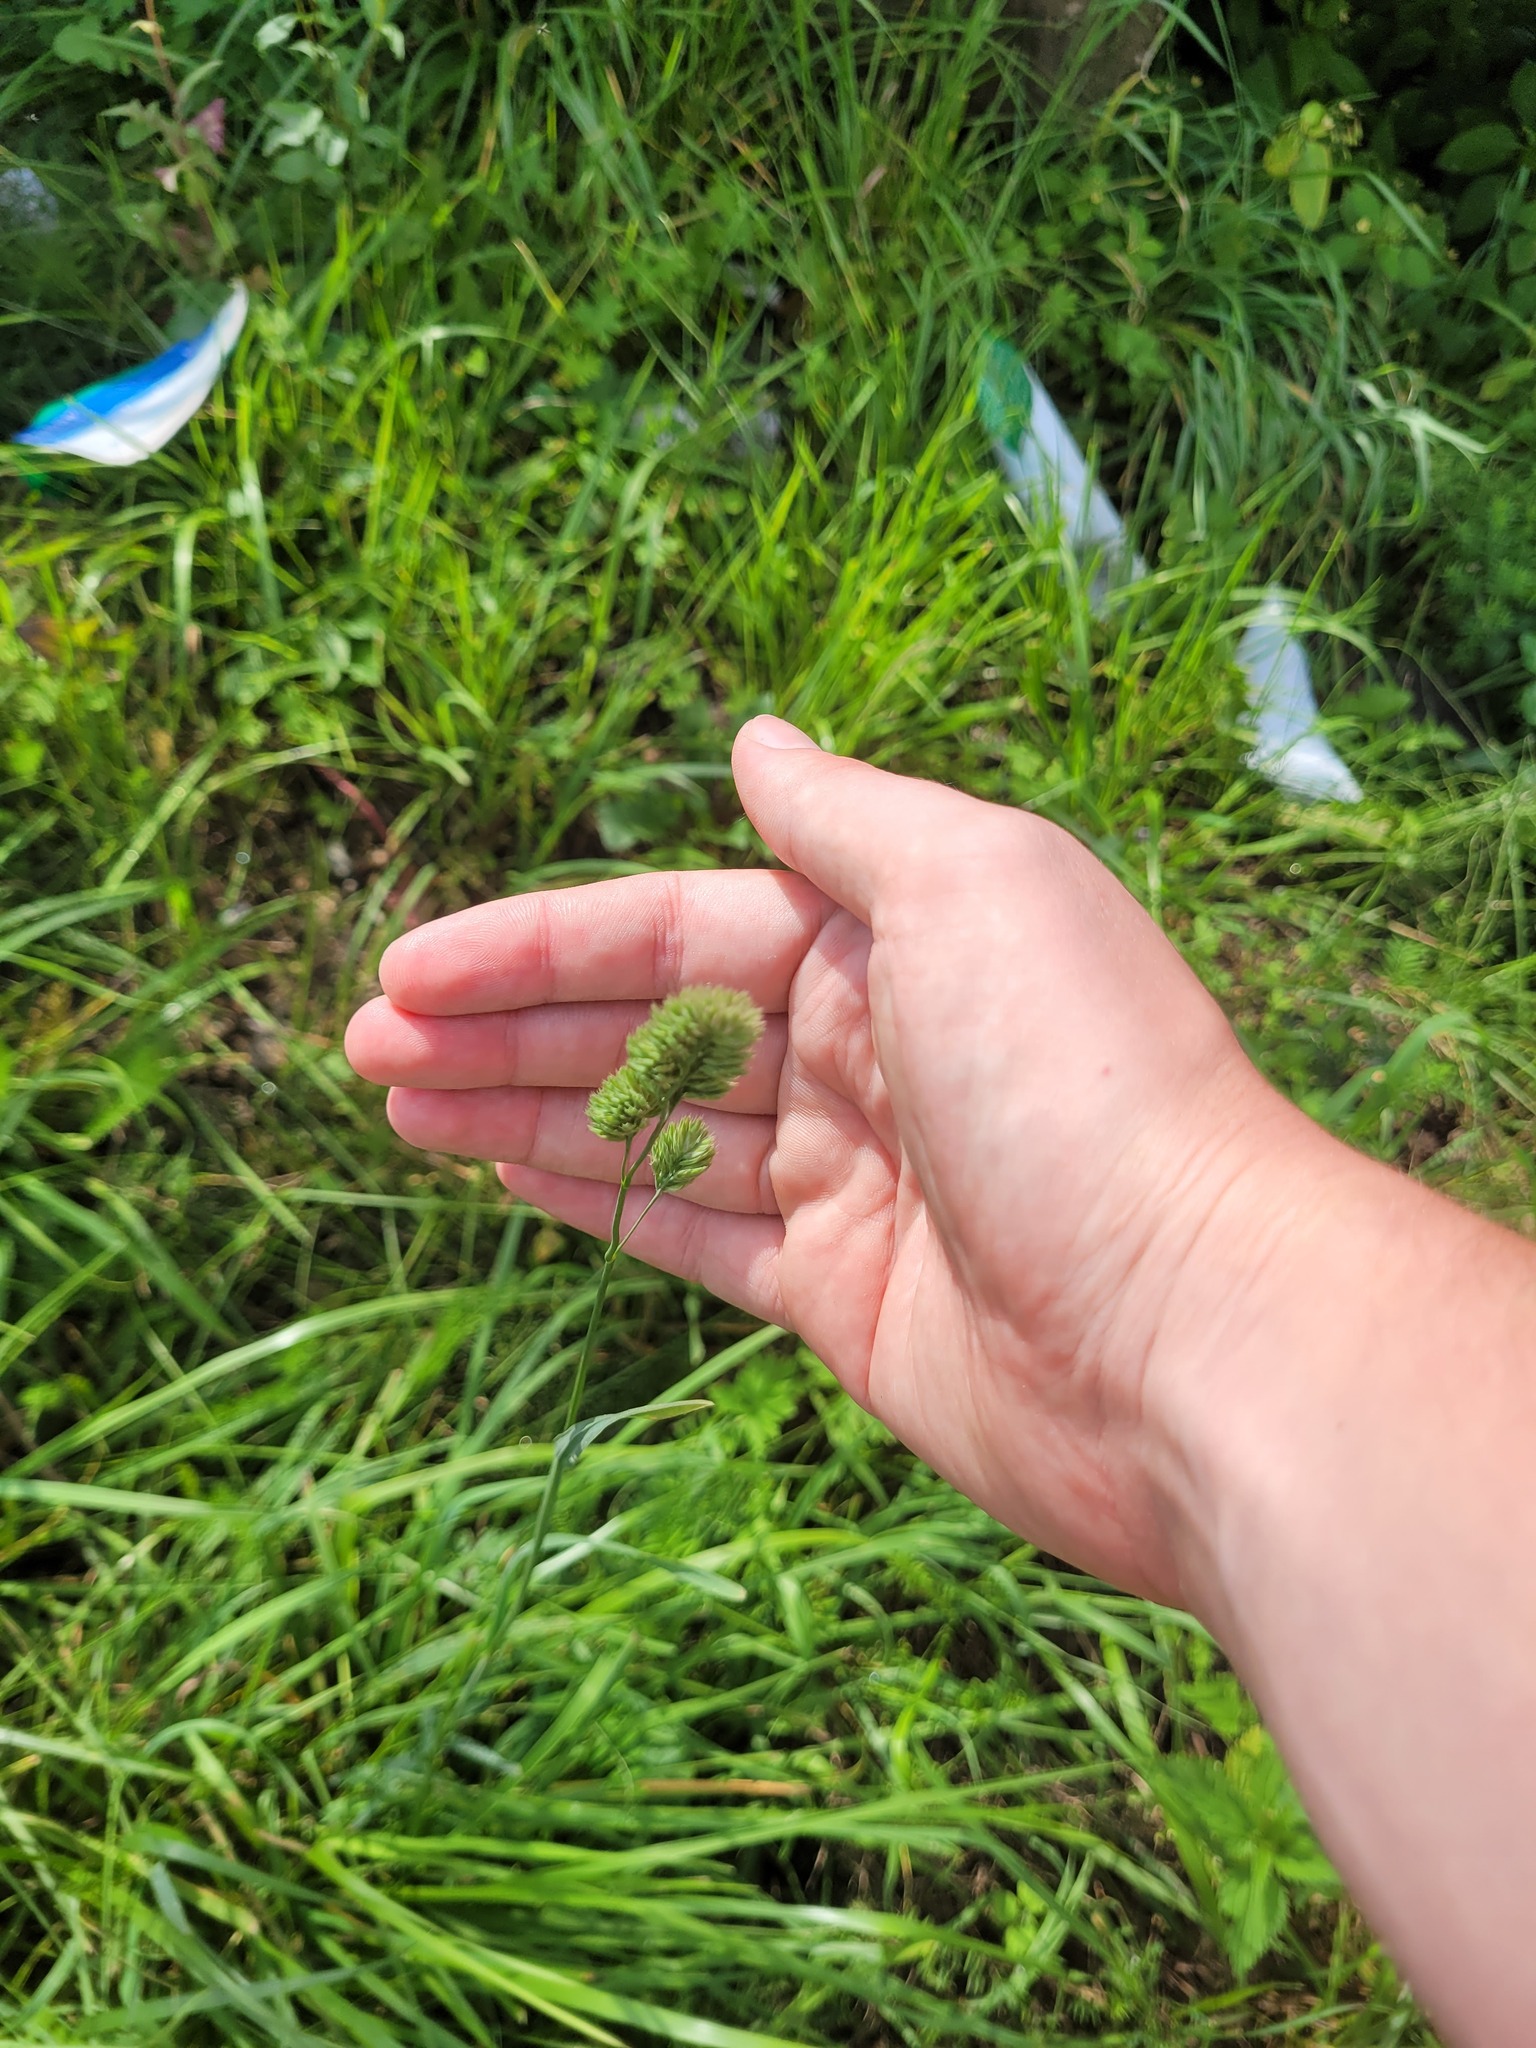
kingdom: Plantae
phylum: Tracheophyta
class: Liliopsida
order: Poales
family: Poaceae
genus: Dactylis
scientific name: Dactylis glomerata
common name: Orchardgrass
